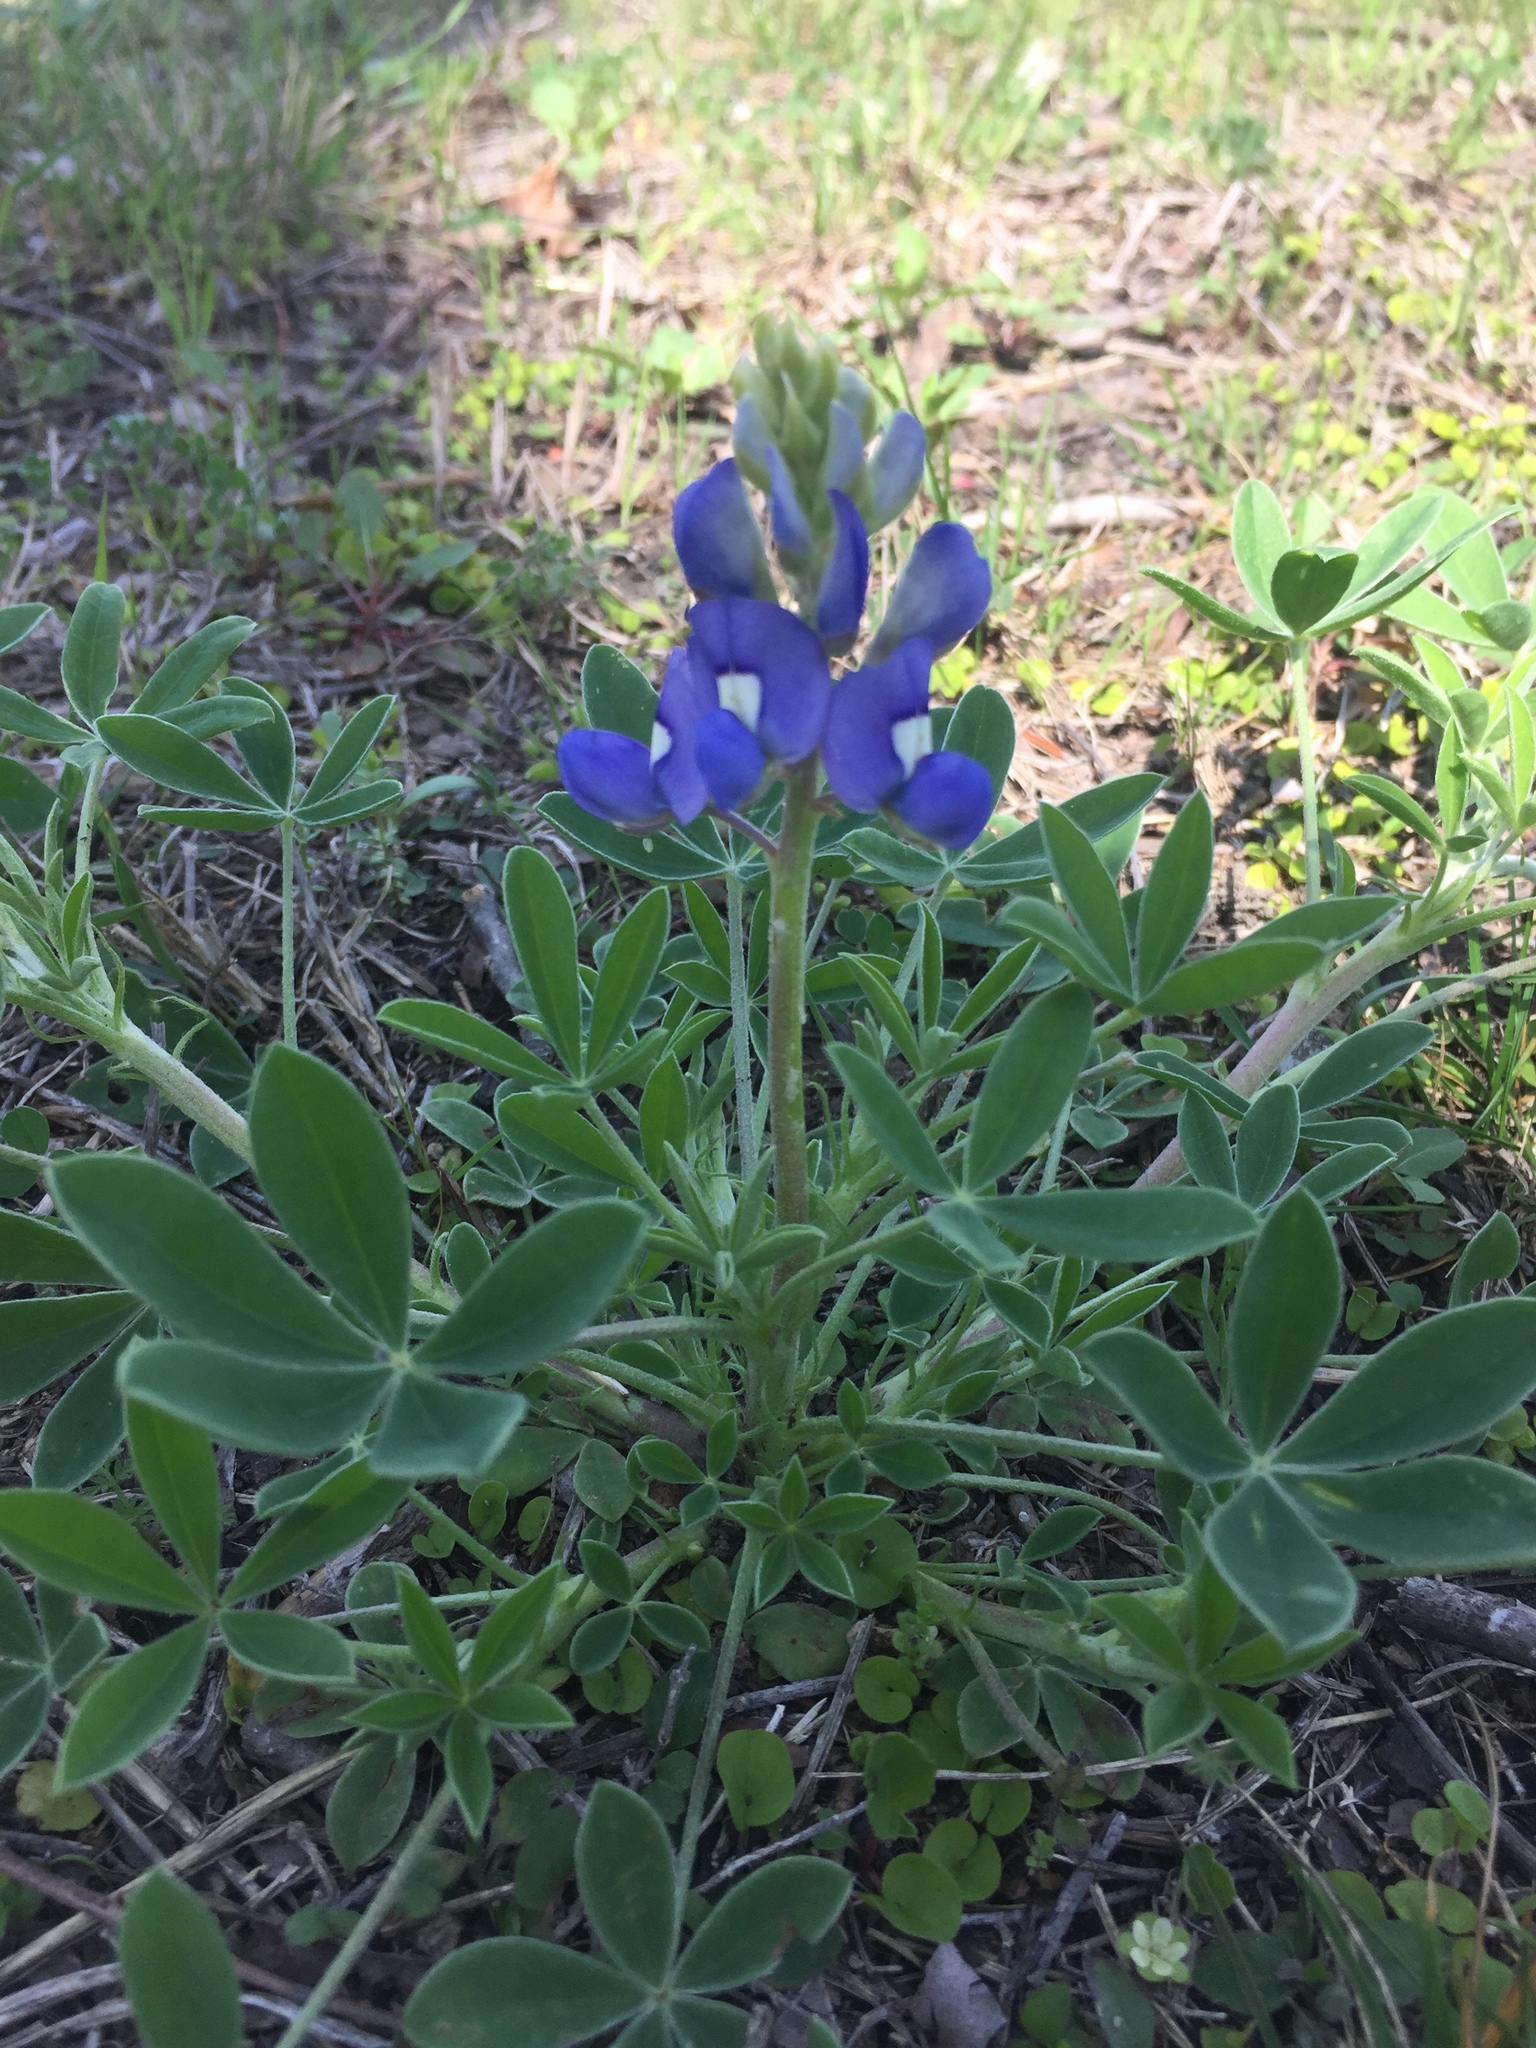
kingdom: Plantae
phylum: Tracheophyta
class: Magnoliopsida
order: Fabales
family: Fabaceae
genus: Lupinus
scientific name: Lupinus texensis
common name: Texas bluebonnet
